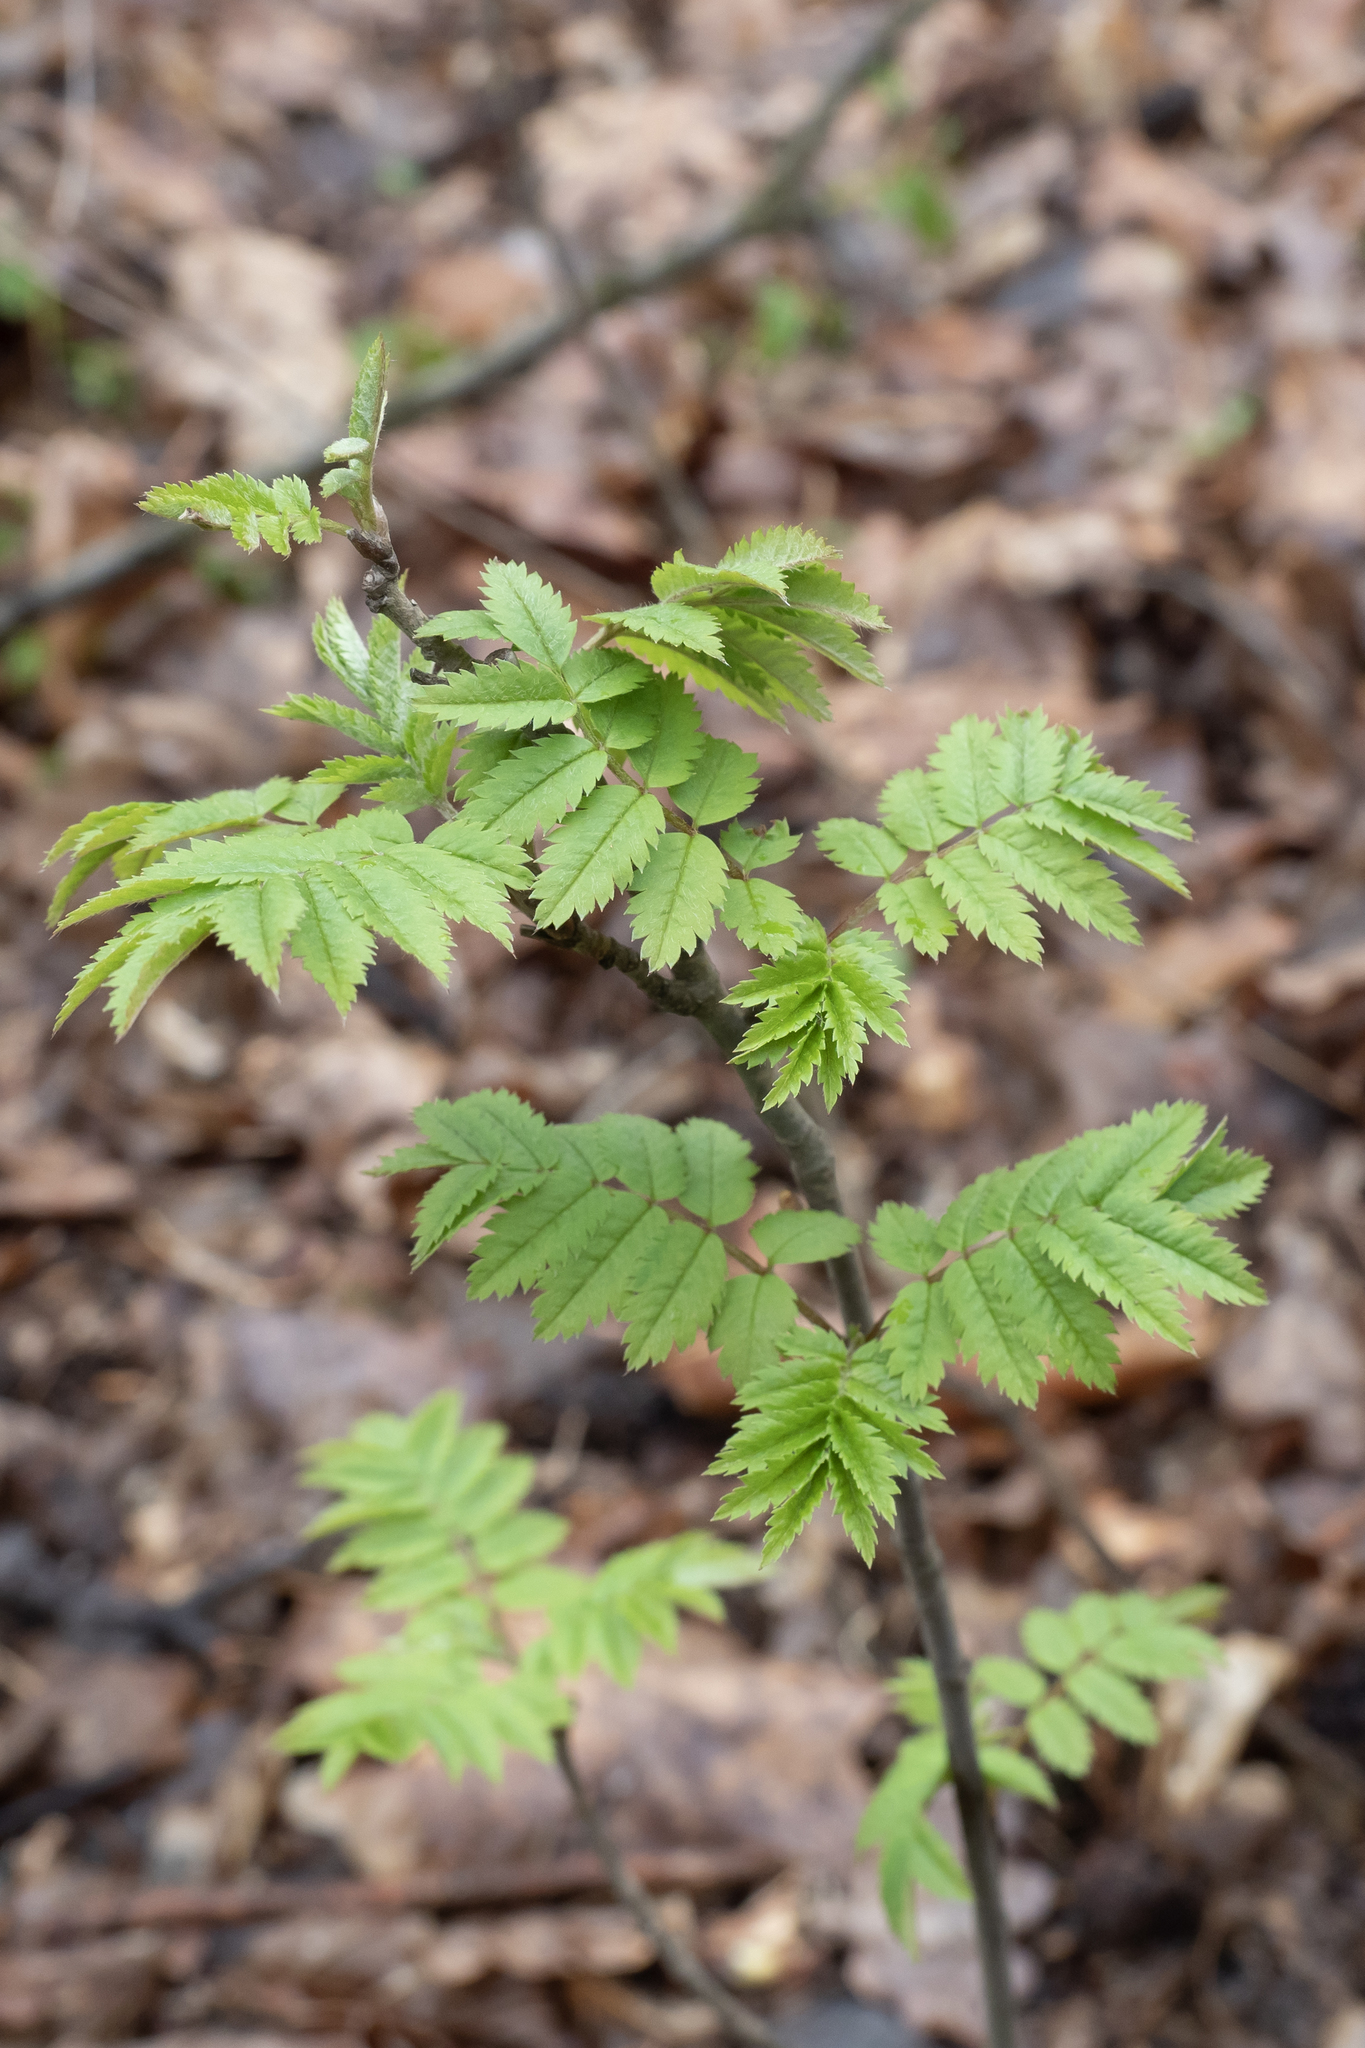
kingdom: Plantae
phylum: Tracheophyta
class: Magnoliopsida
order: Rosales
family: Rosaceae
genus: Sorbus
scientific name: Sorbus aucuparia
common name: Rowan
